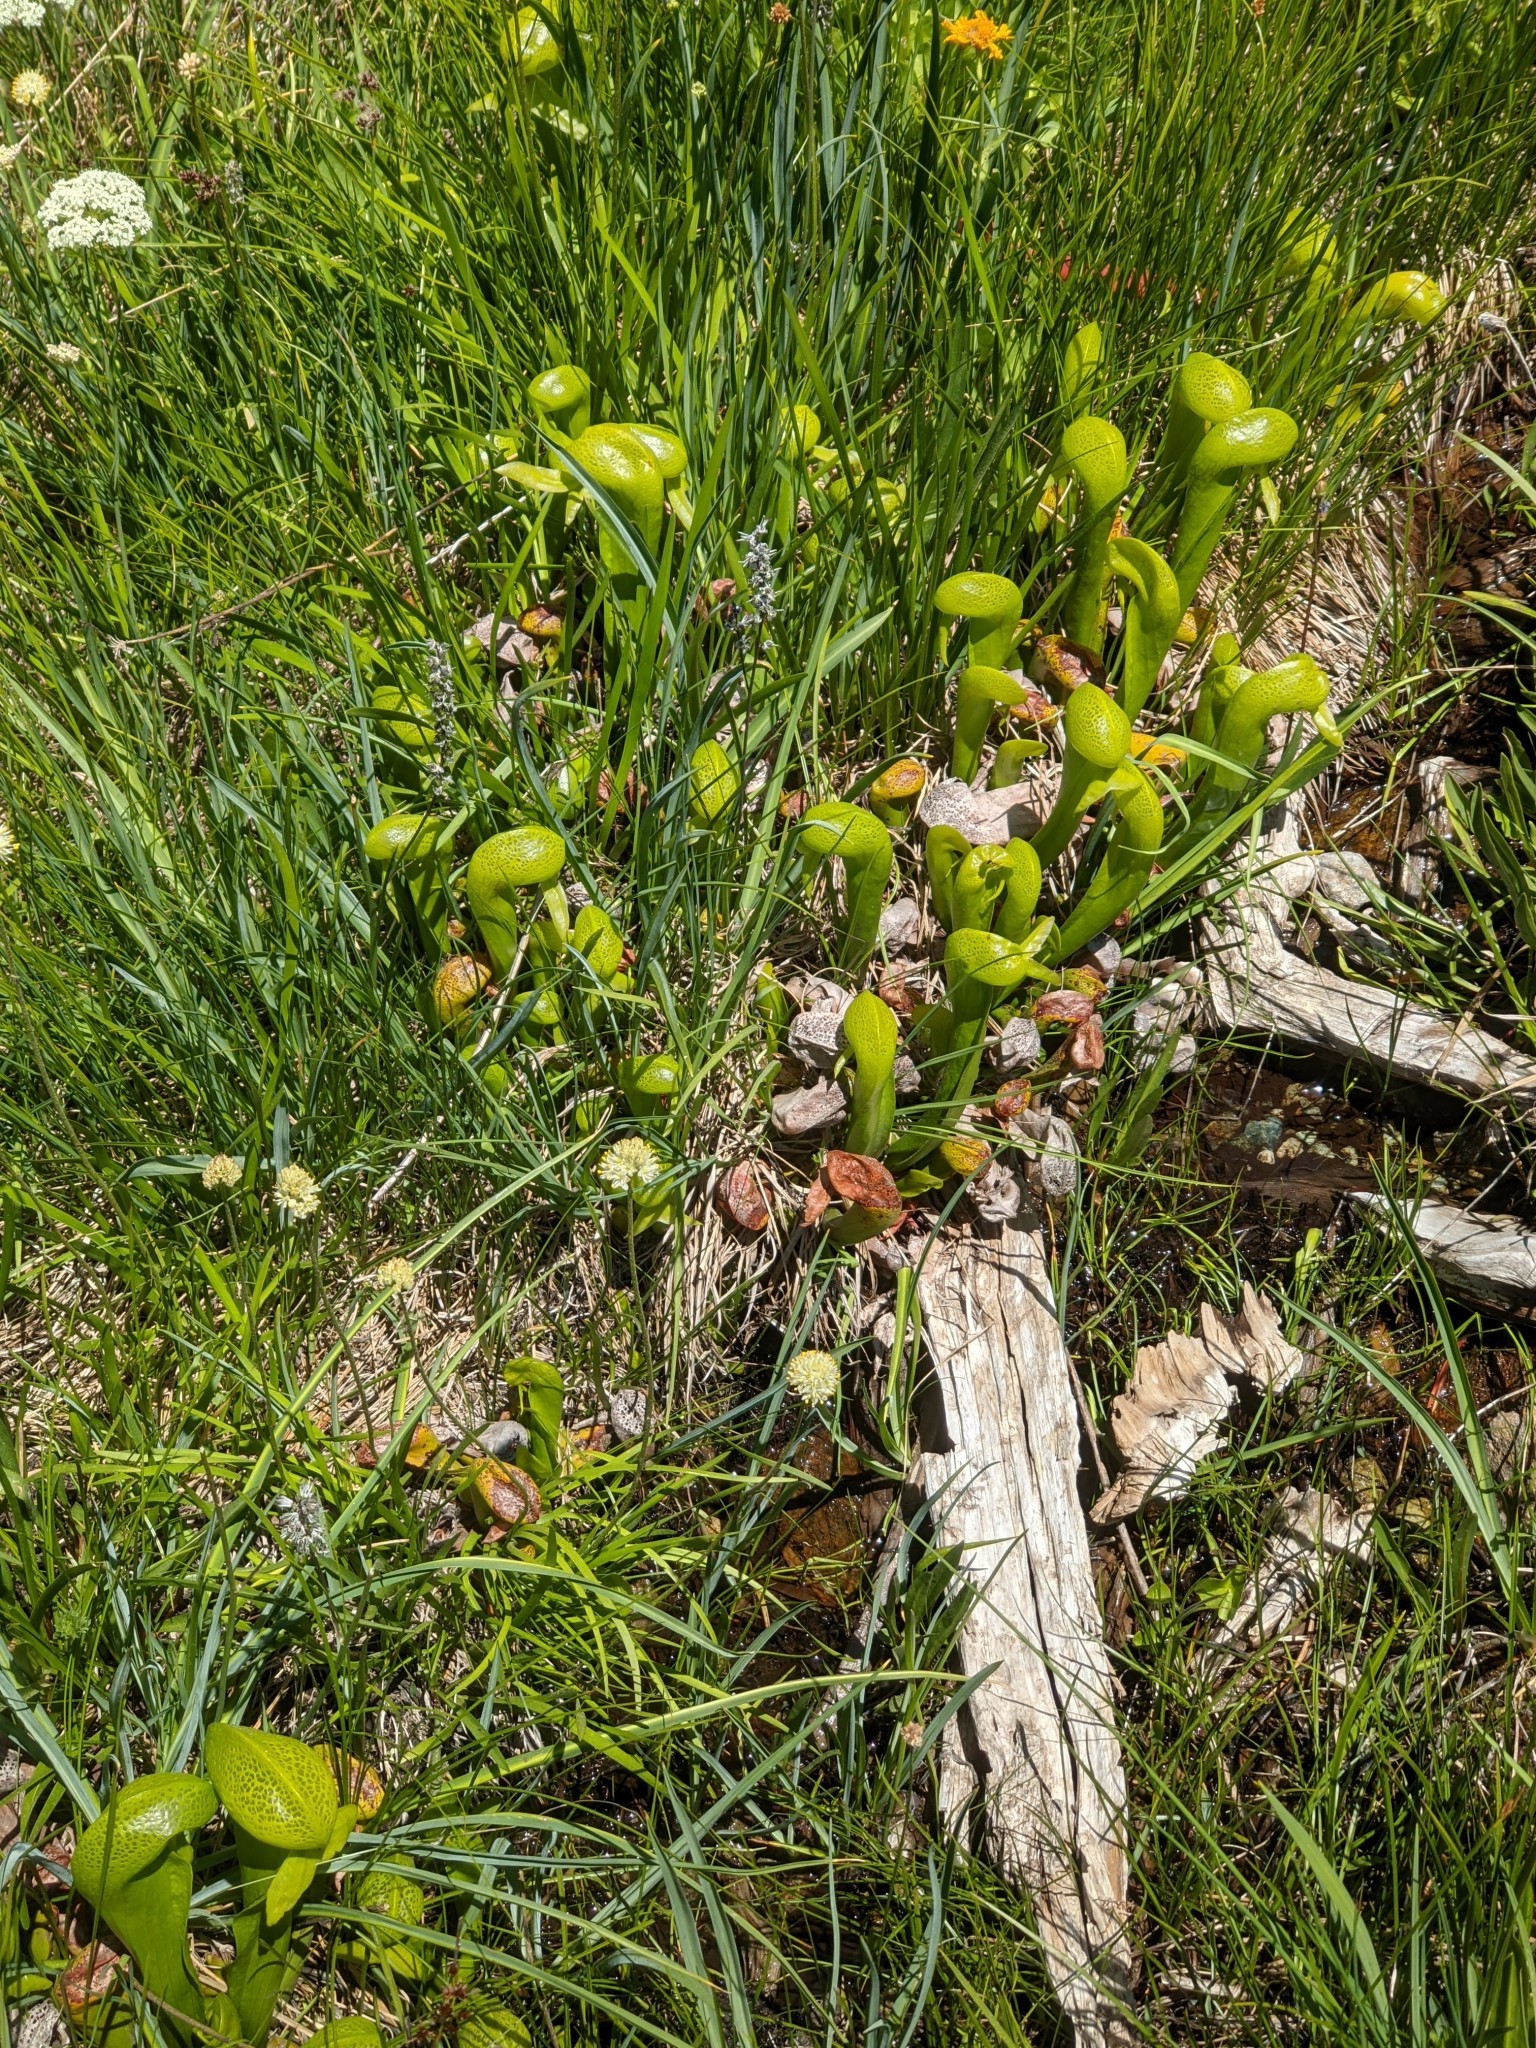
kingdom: Plantae
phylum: Tracheophyta
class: Magnoliopsida
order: Ericales
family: Sarraceniaceae
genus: Darlingtonia
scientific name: Darlingtonia californica
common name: California pitcher plant
